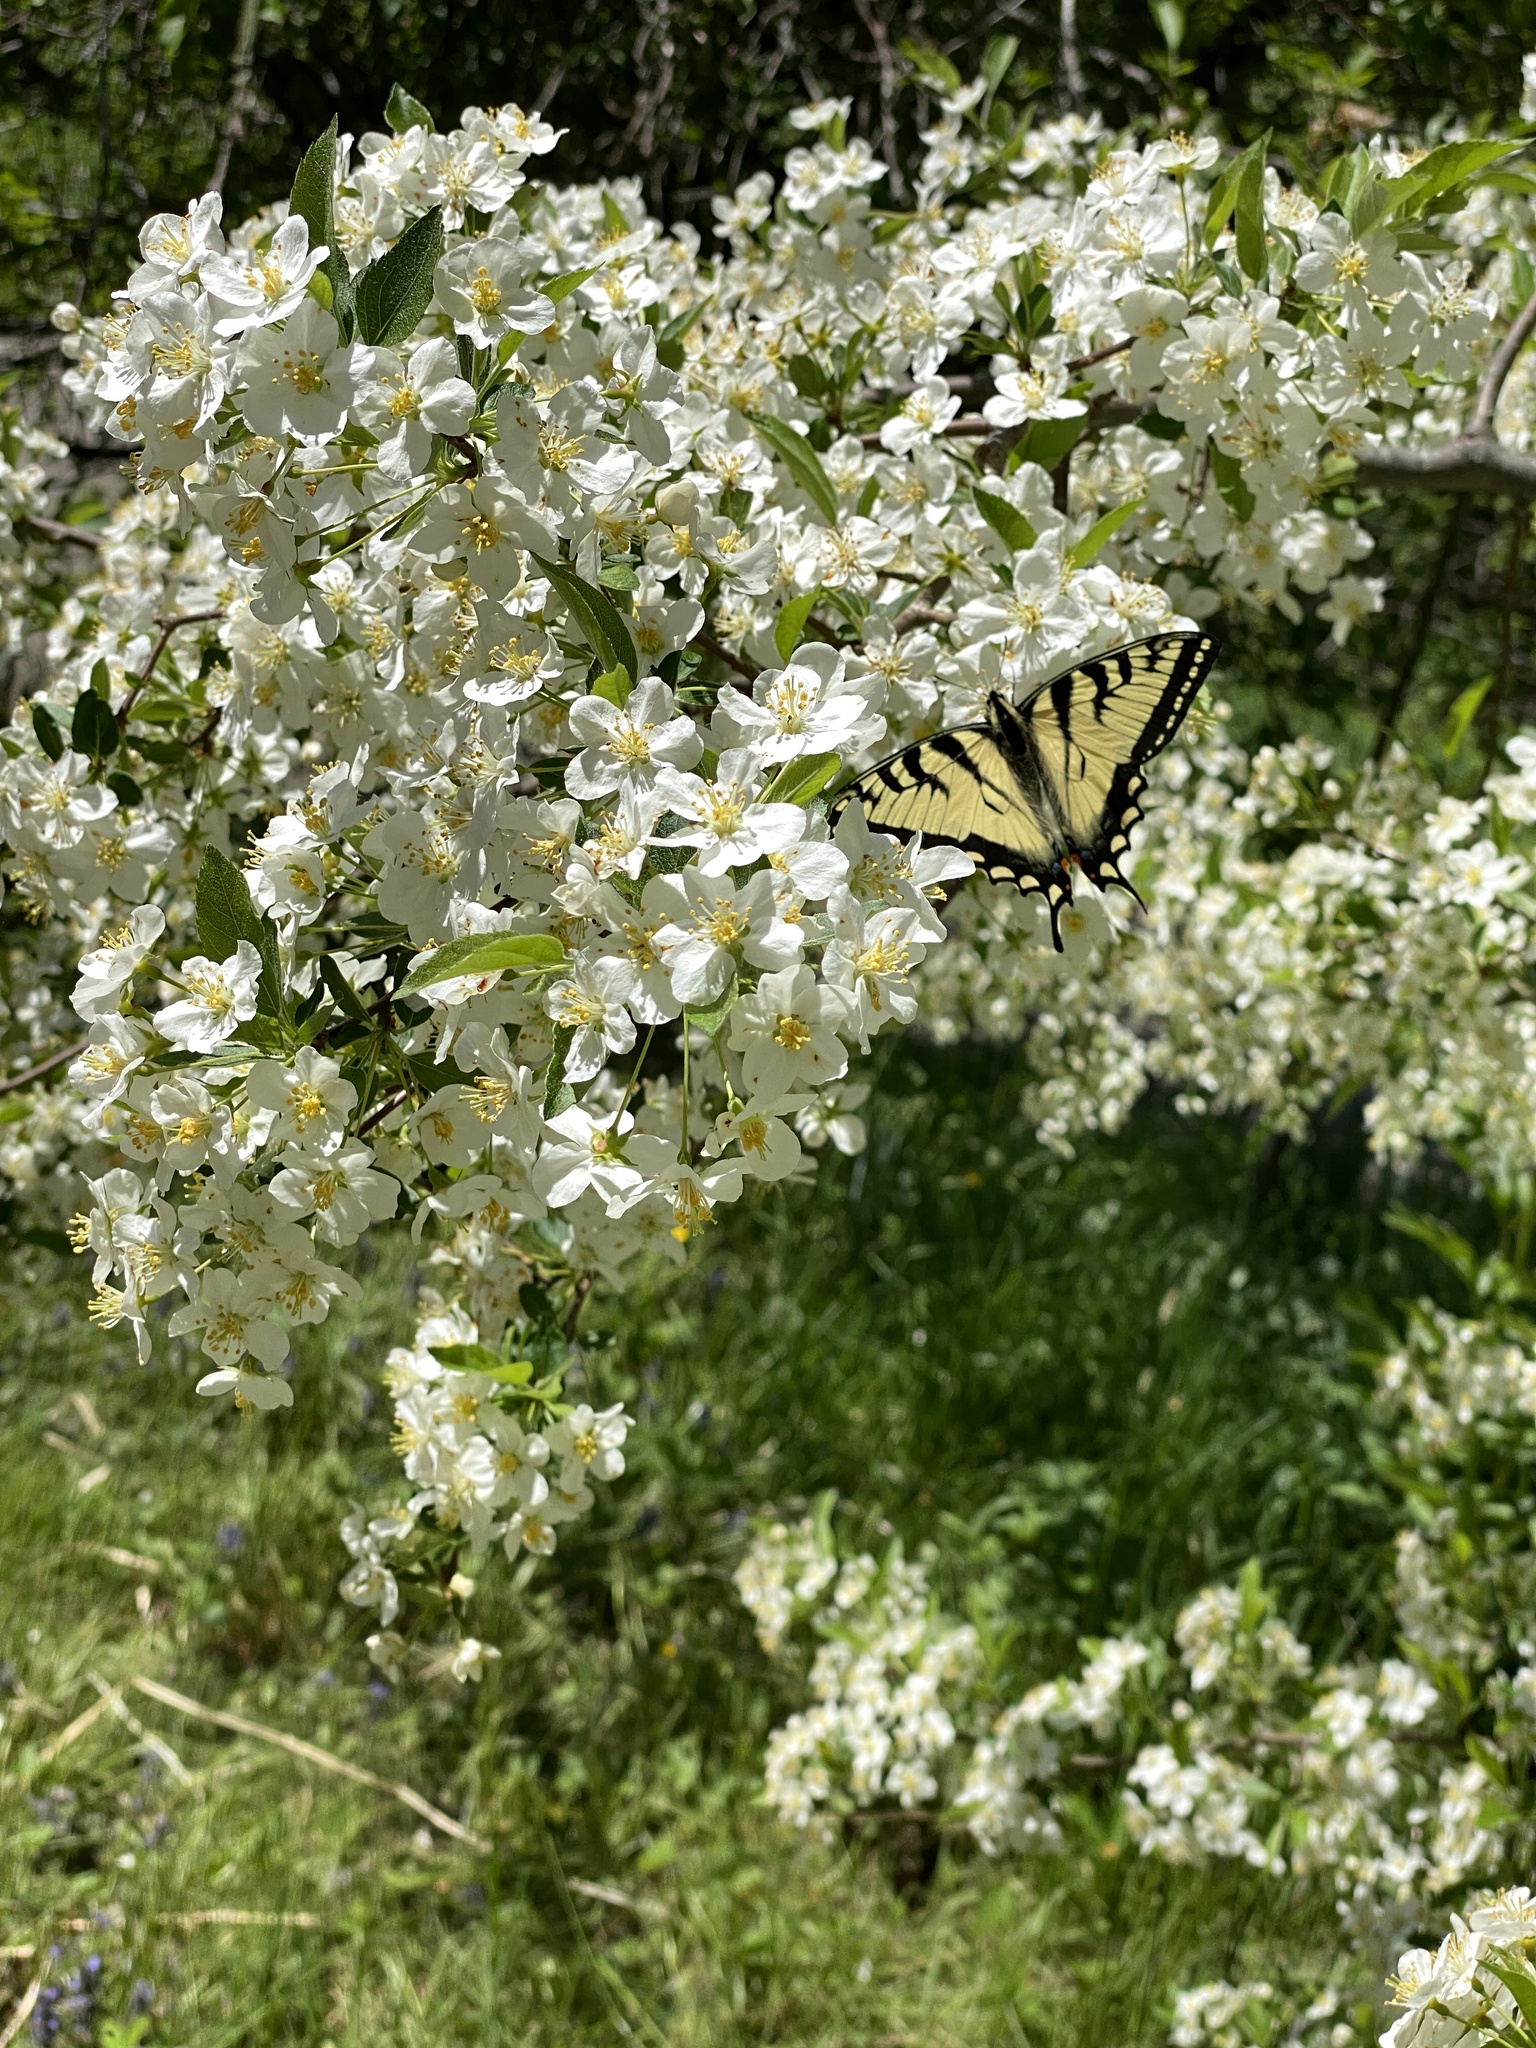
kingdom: Animalia
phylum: Arthropoda
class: Insecta
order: Lepidoptera
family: Papilionidae
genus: Papilio
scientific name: Papilio canadensis
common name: Canadian tiger swallowtail
